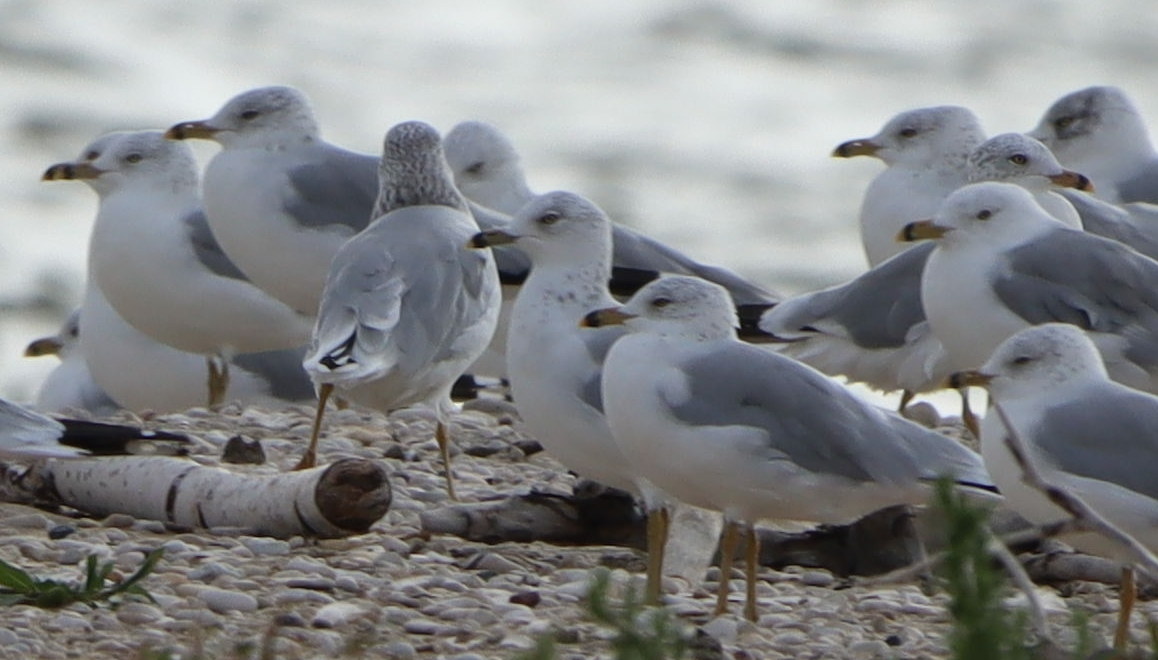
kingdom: Animalia
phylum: Chordata
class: Aves
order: Charadriiformes
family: Laridae
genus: Larus
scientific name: Larus delawarensis
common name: Ring-billed gull
